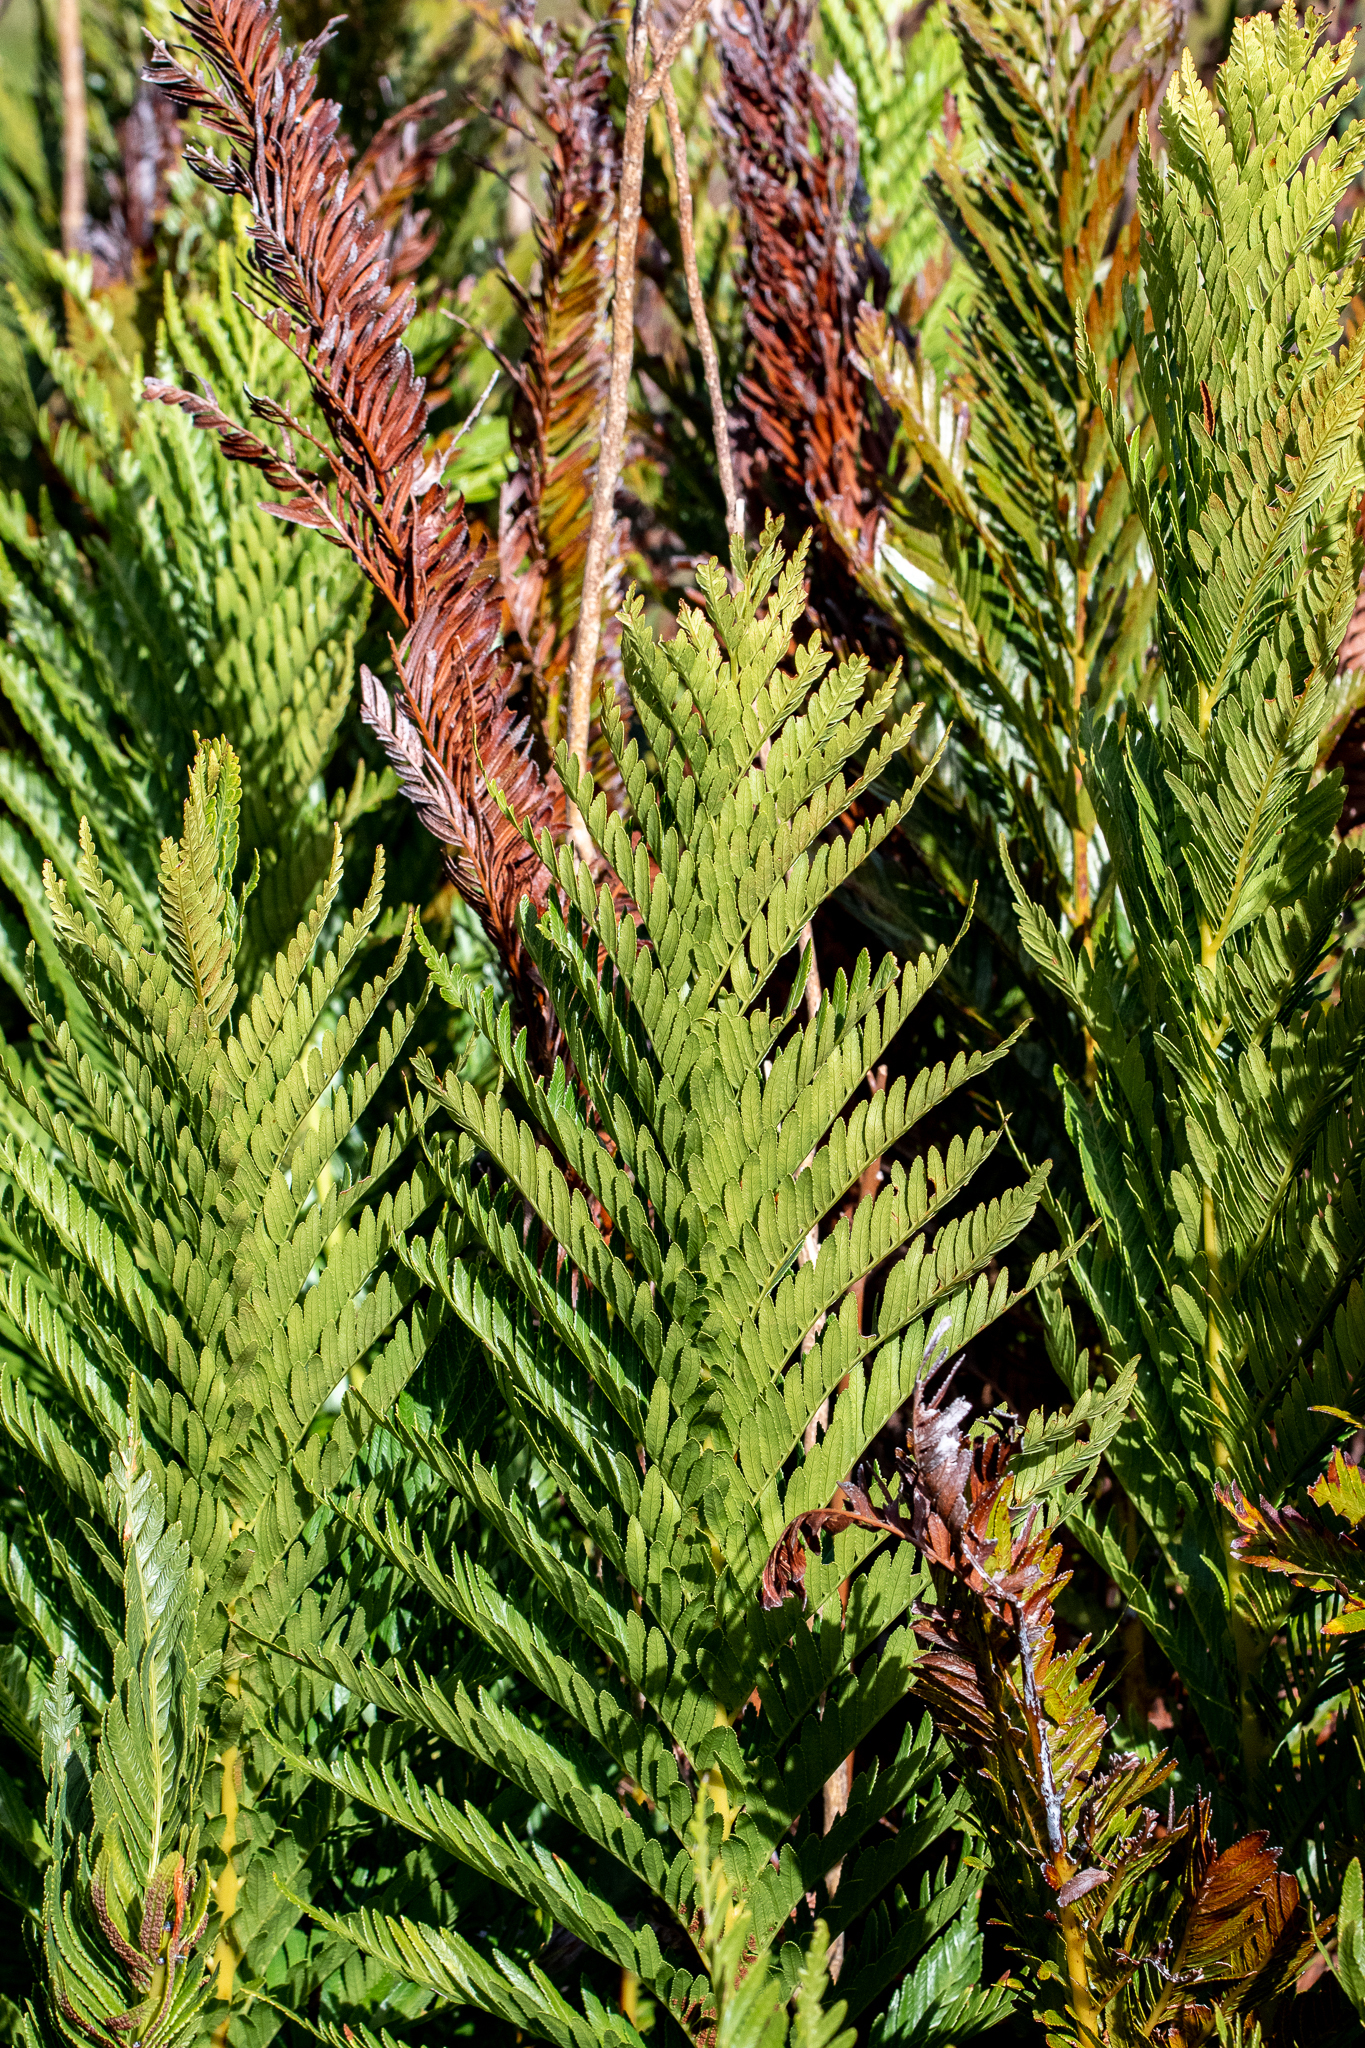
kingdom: Plantae
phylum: Tracheophyta
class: Polypodiopsida
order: Osmundales
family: Osmundaceae
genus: Todea
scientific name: Todea barbara
